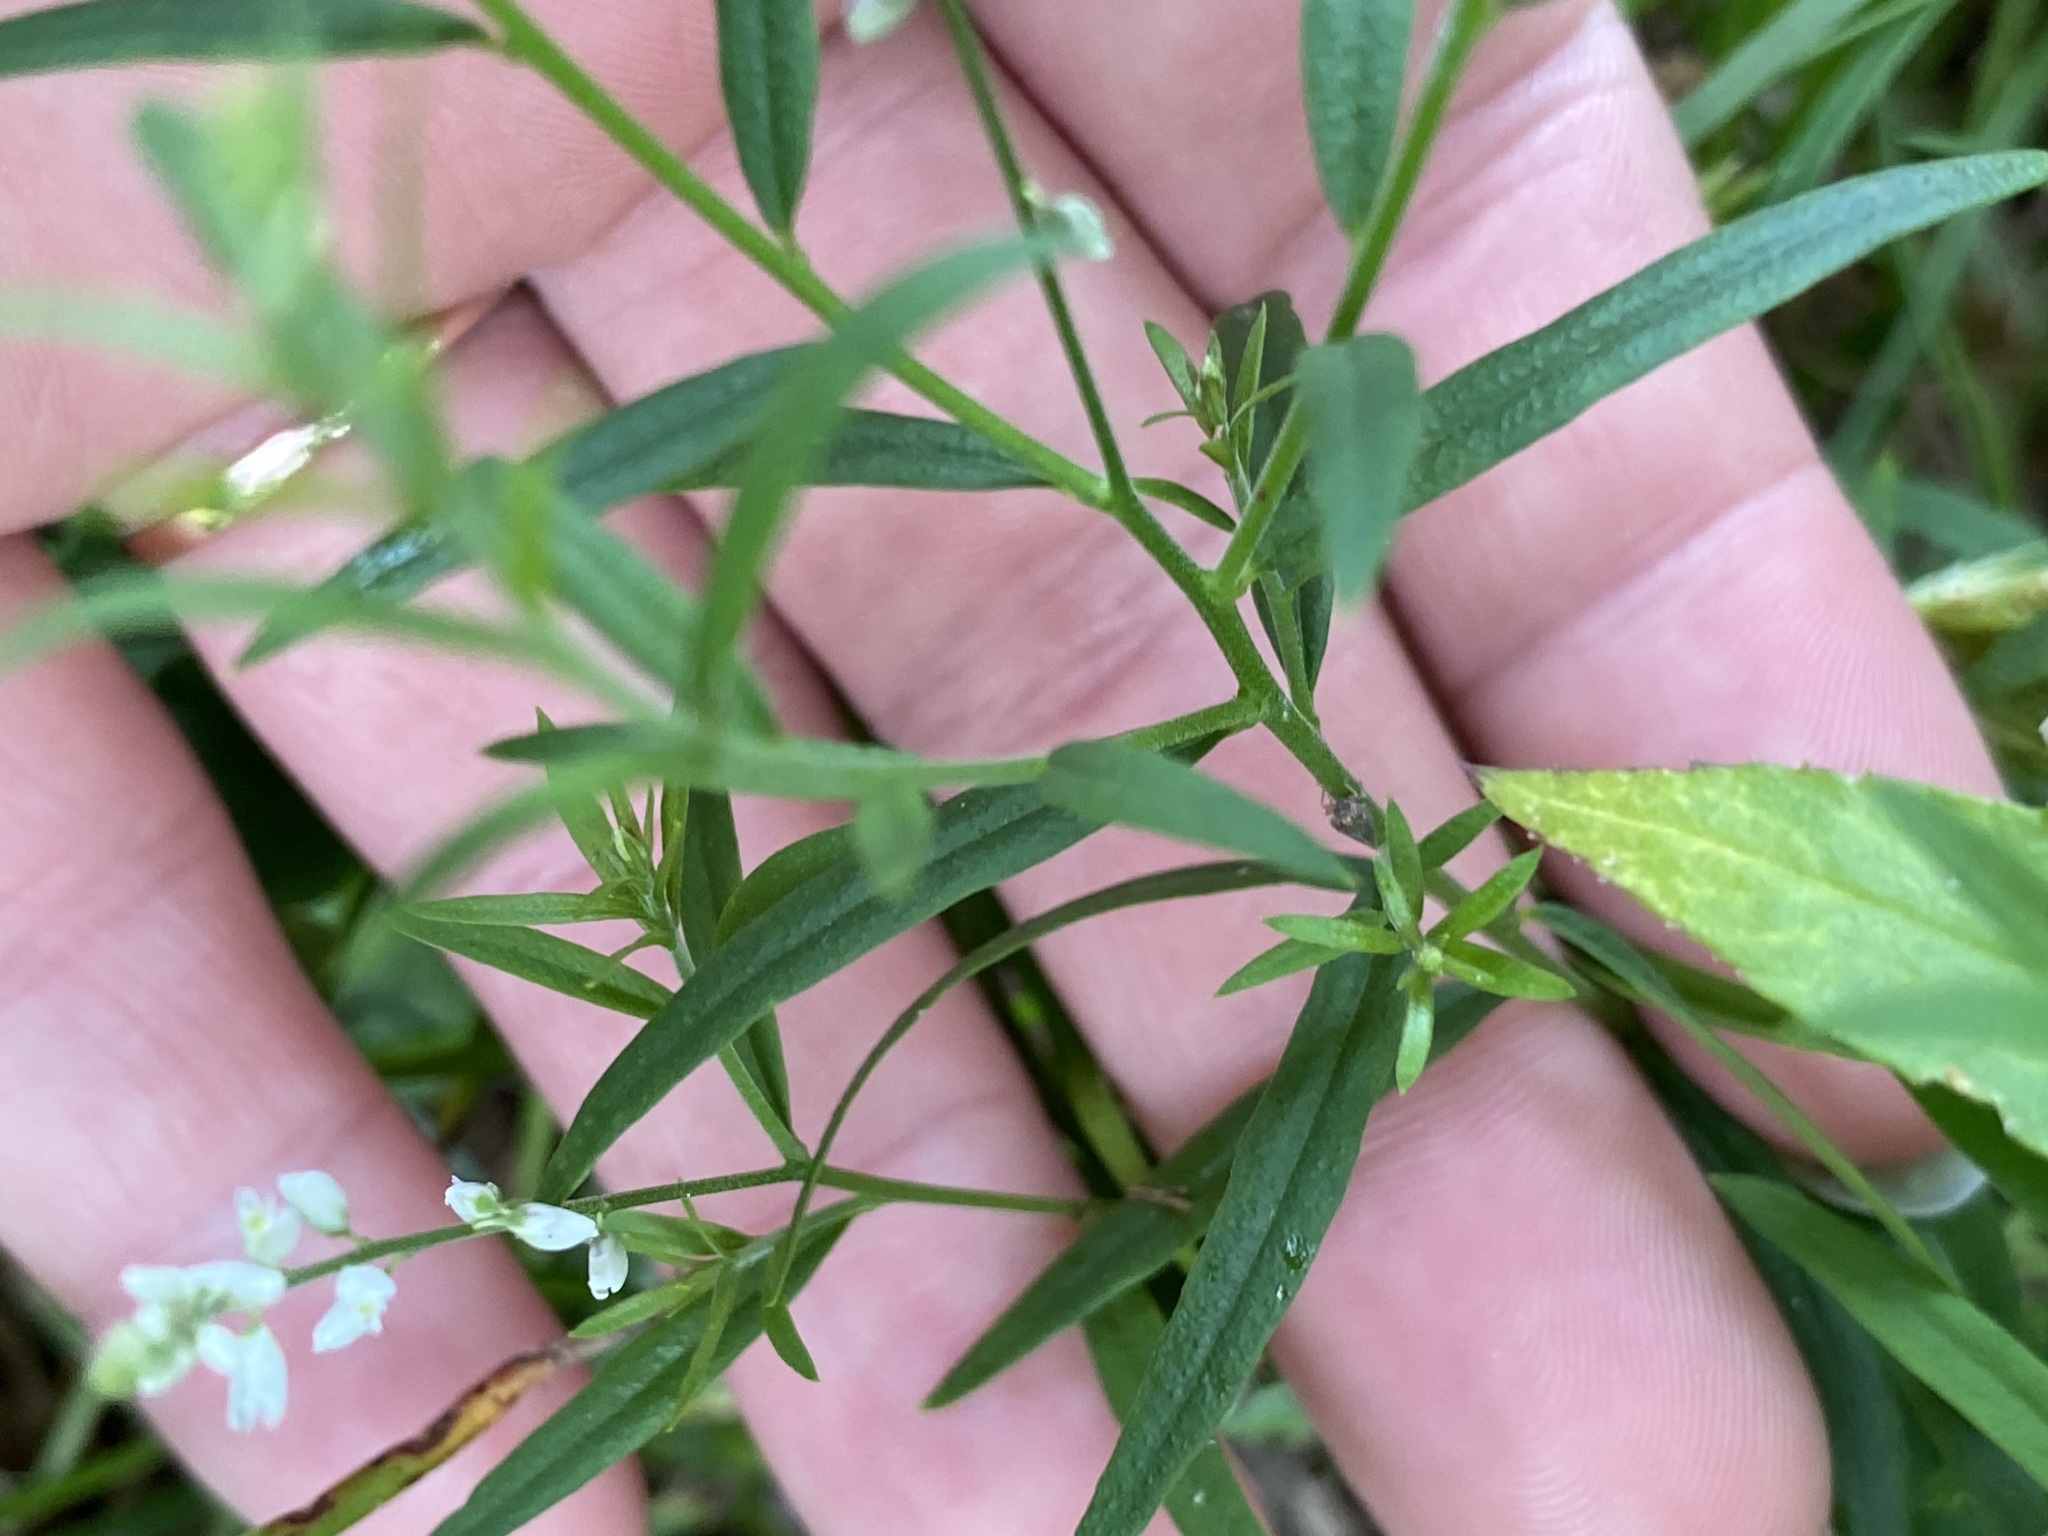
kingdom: Plantae
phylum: Tracheophyta
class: Magnoliopsida
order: Fabales
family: Polygalaceae
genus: Polygala
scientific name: Polygala paniculata
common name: Orosne
